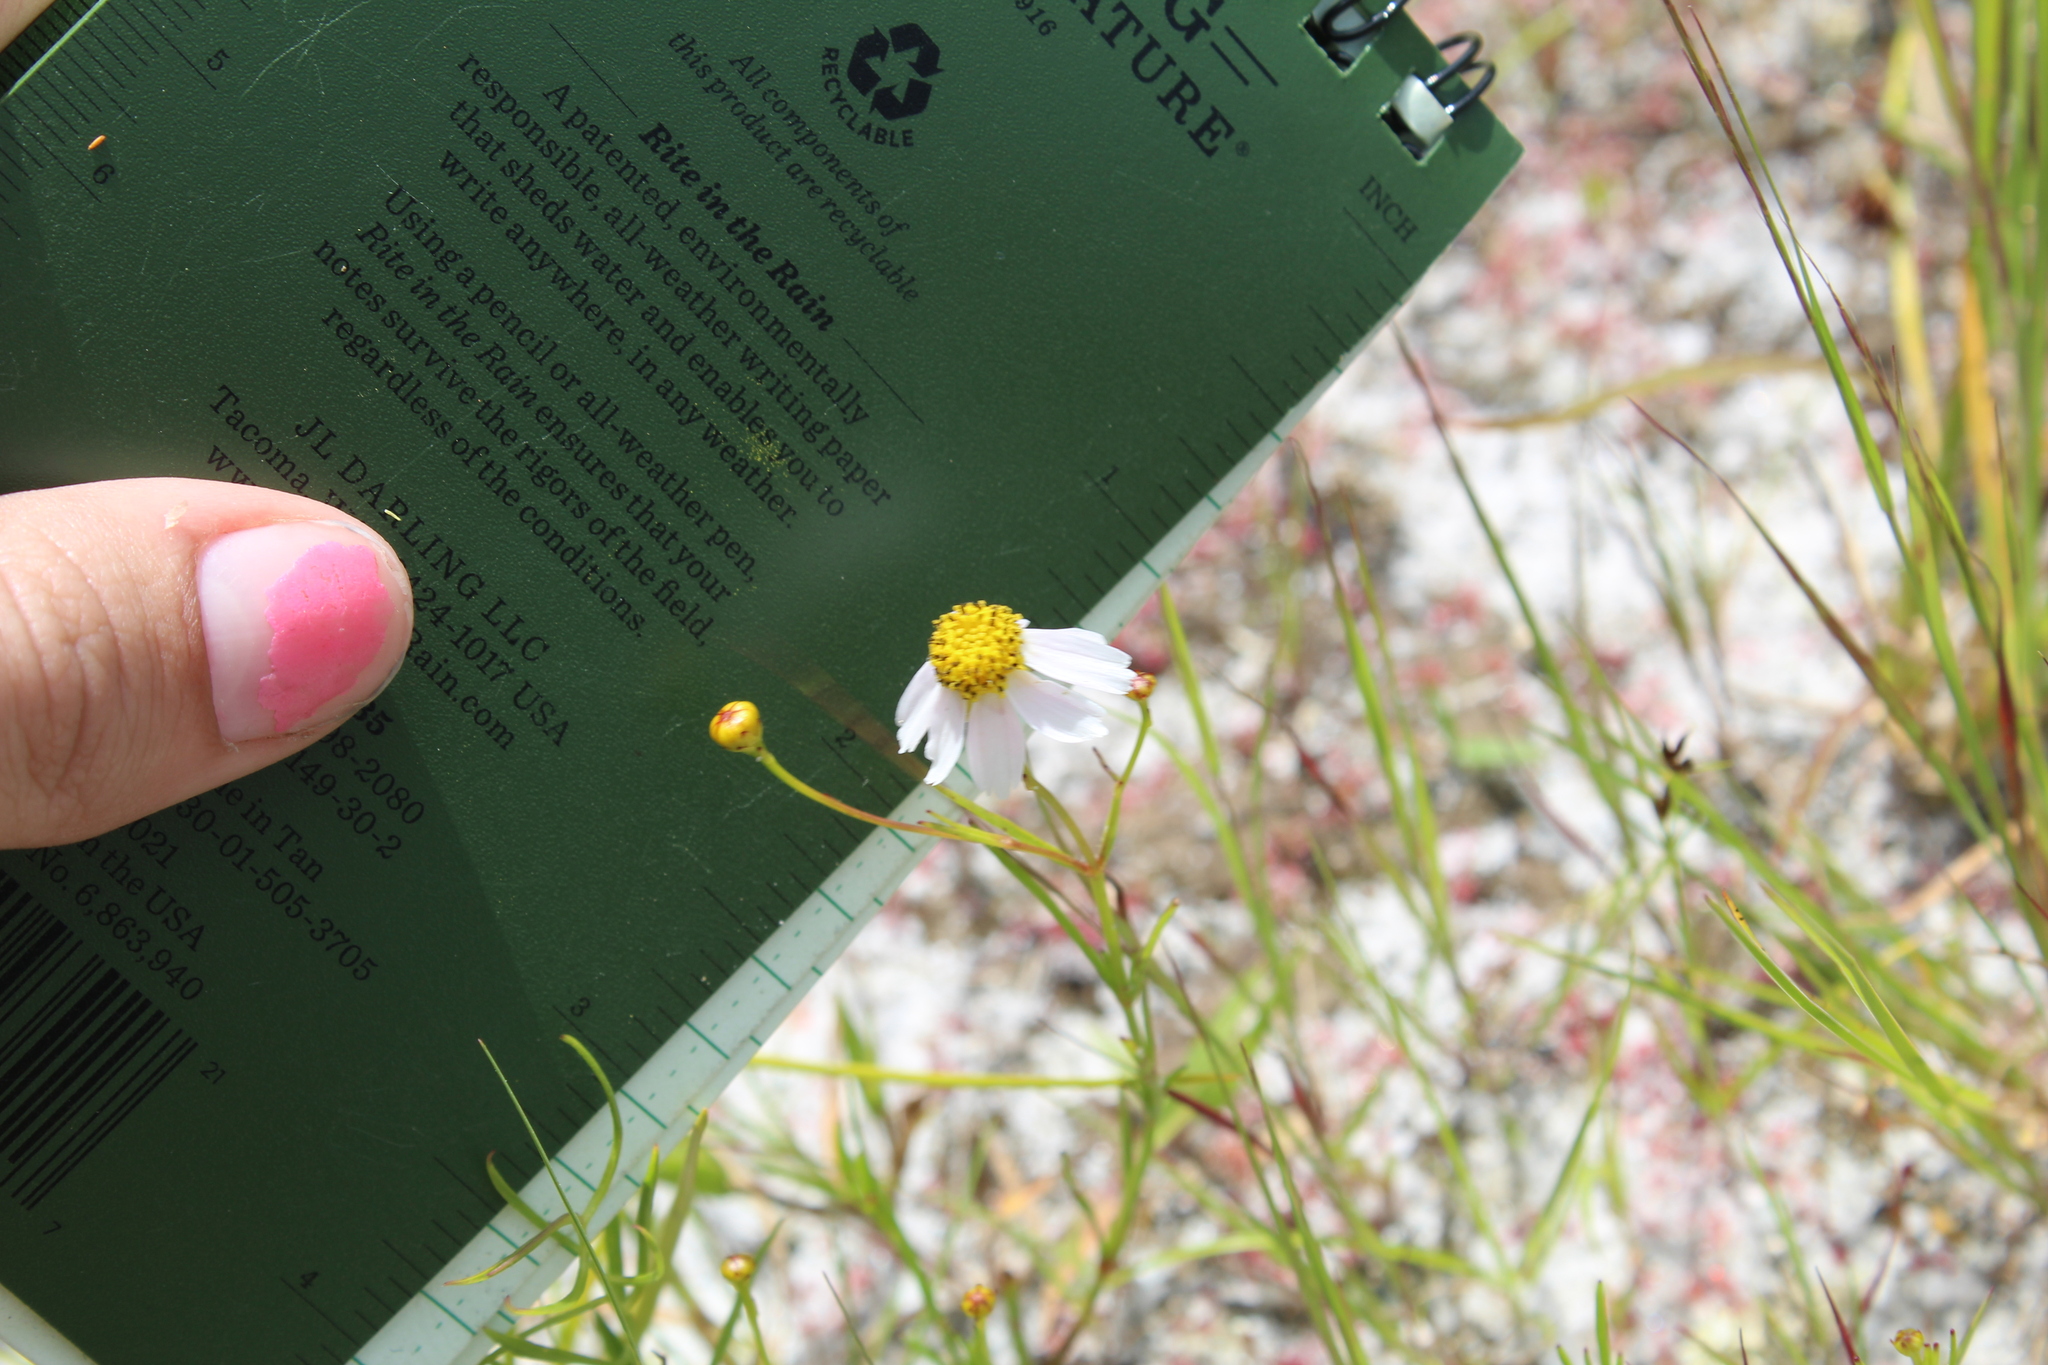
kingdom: Plantae
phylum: Tracheophyta
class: Magnoliopsida
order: Asterales
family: Asteraceae
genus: Coreopsis
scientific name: Coreopsis rosea
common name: Pink coreopsis
